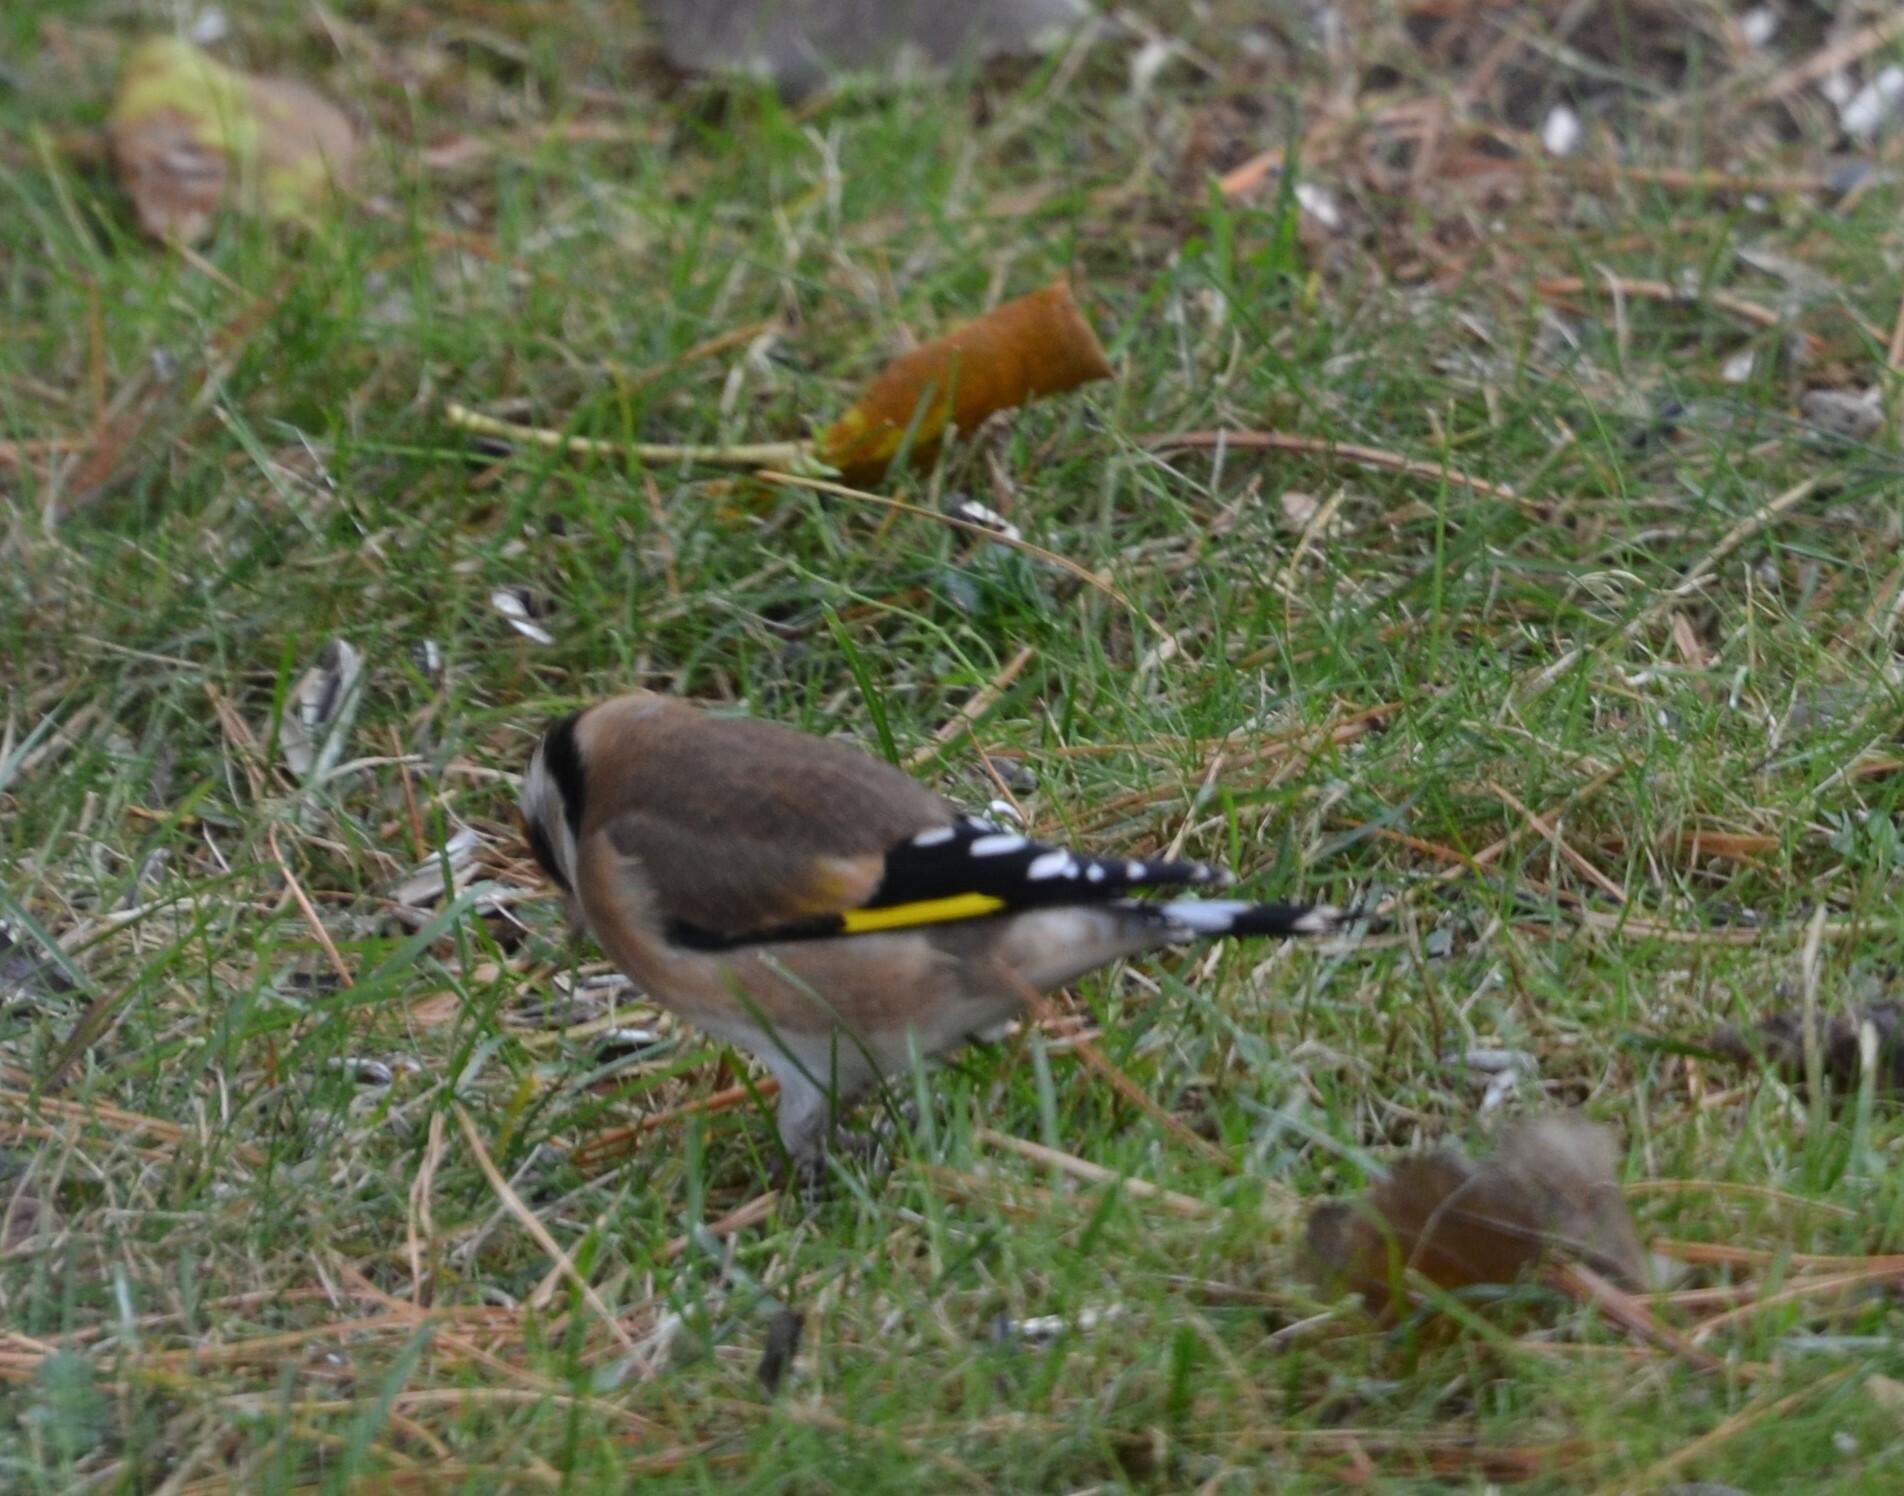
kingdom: Animalia
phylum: Chordata
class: Aves
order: Passeriformes
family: Fringillidae
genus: Carduelis
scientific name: Carduelis carduelis
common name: European goldfinch
